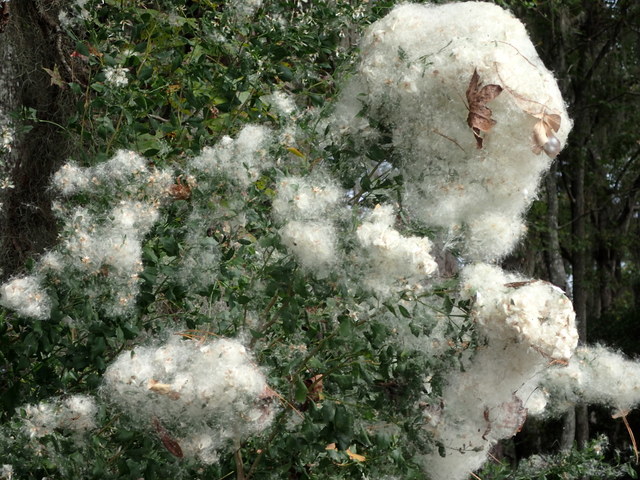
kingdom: Plantae
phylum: Tracheophyta
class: Magnoliopsida
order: Asterales
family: Asteraceae
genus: Baccharis
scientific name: Baccharis halimifolia
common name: Eastern baccharis
